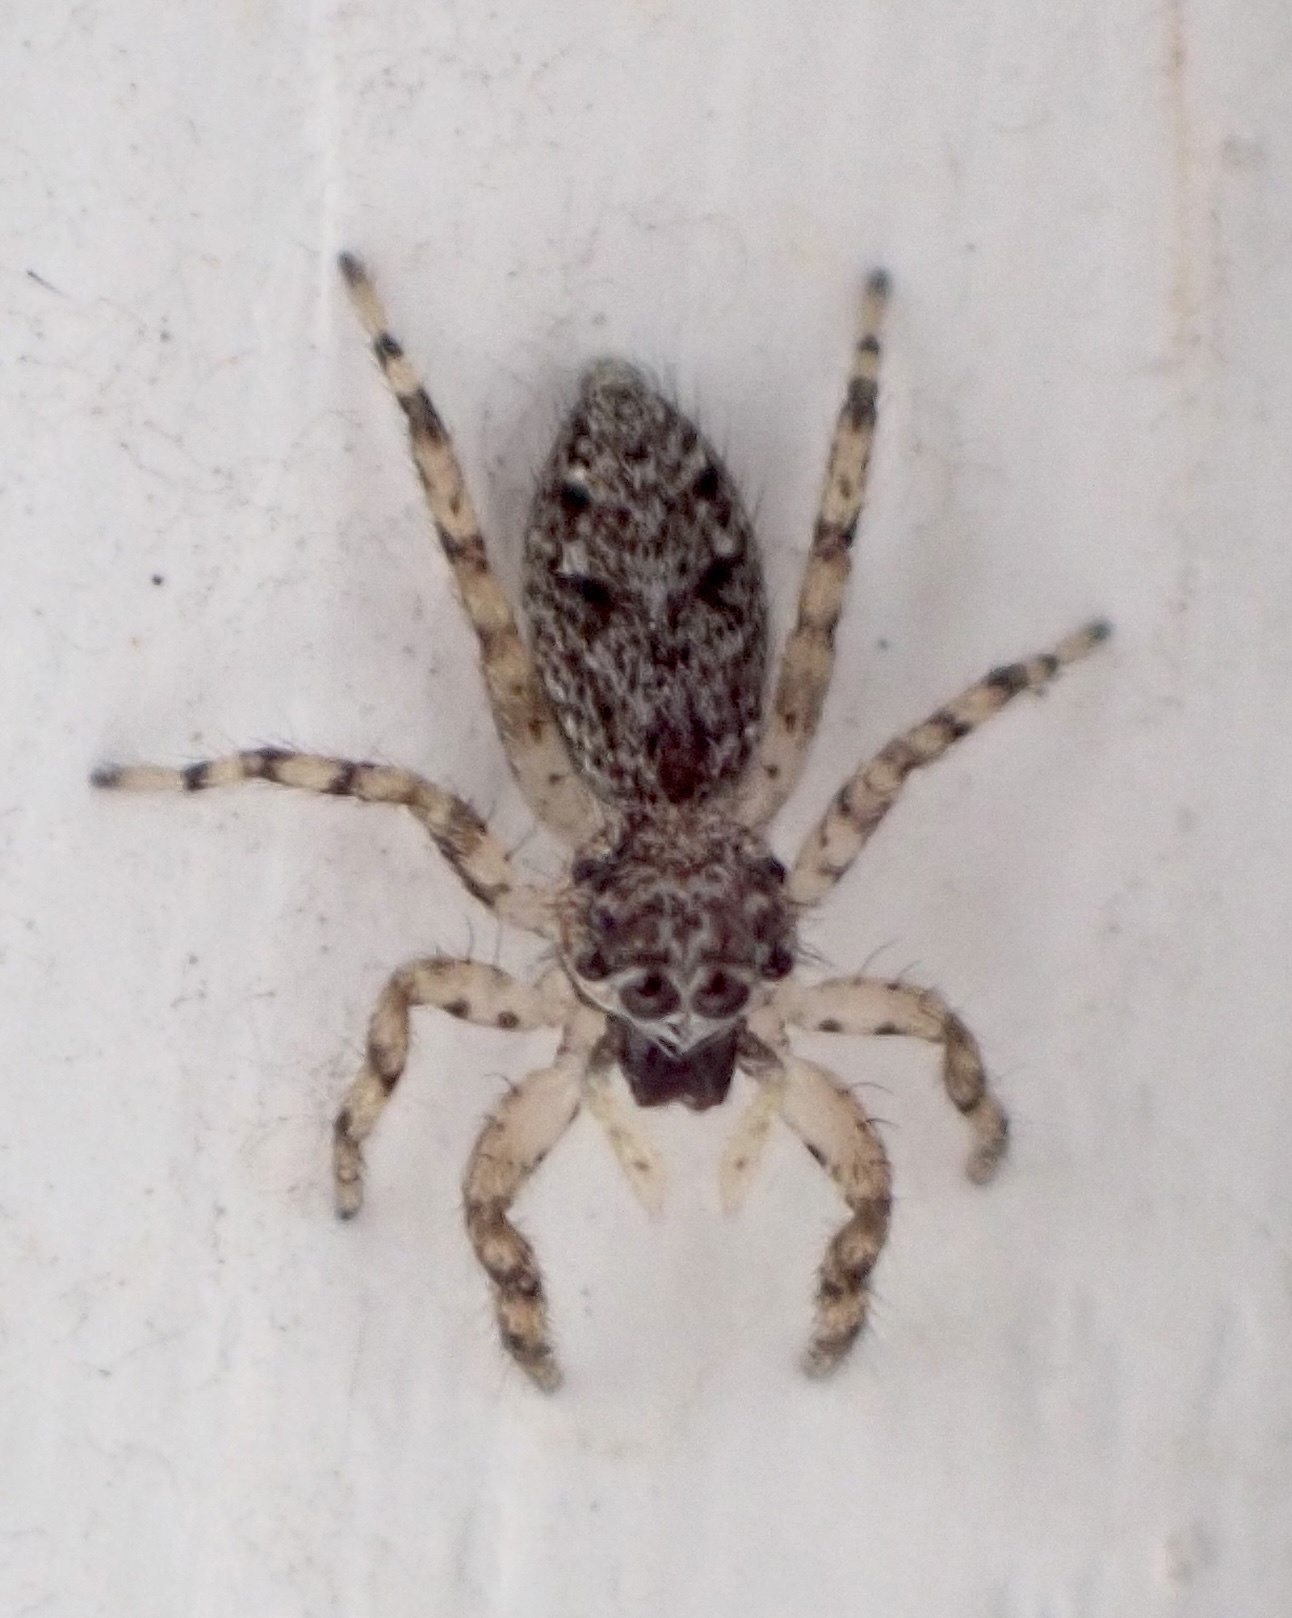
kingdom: Animalia
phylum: Arthropoda
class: Arachnida
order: Araneae
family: Salticidae
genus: Platycryptus
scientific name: Platycryptus undatus
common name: Tan jumping spider
